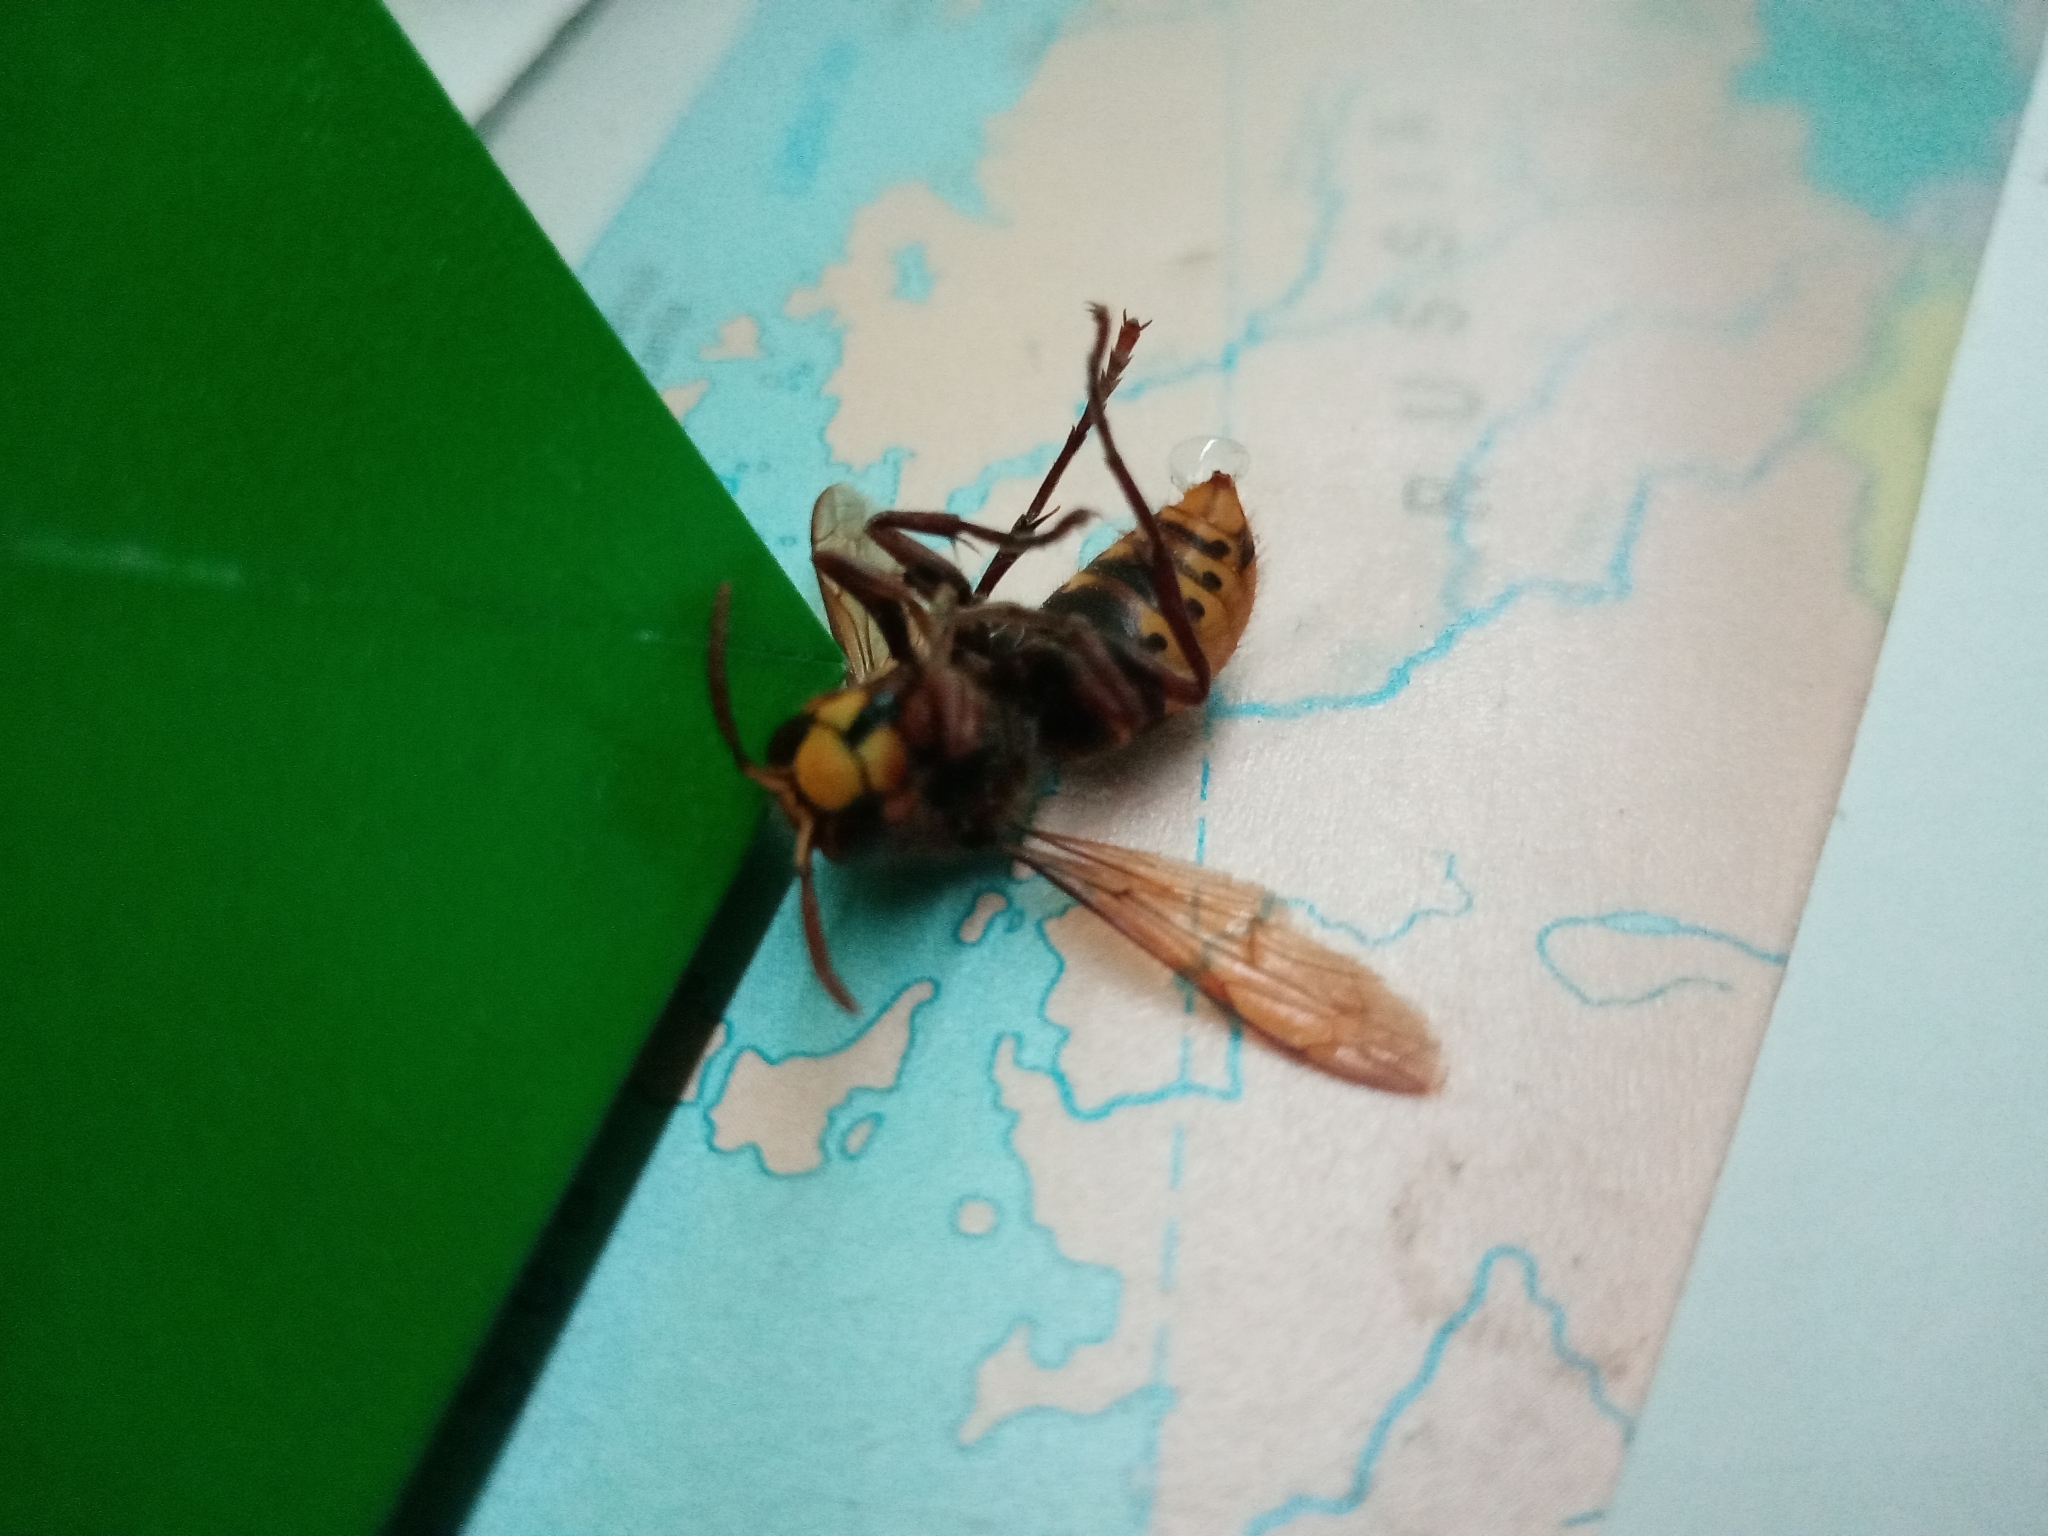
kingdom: Animalia
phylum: Arthropoda
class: Insecta
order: Hymenoptera
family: Vespidae
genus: Vespa
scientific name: Vespa crabro
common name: Hornet
